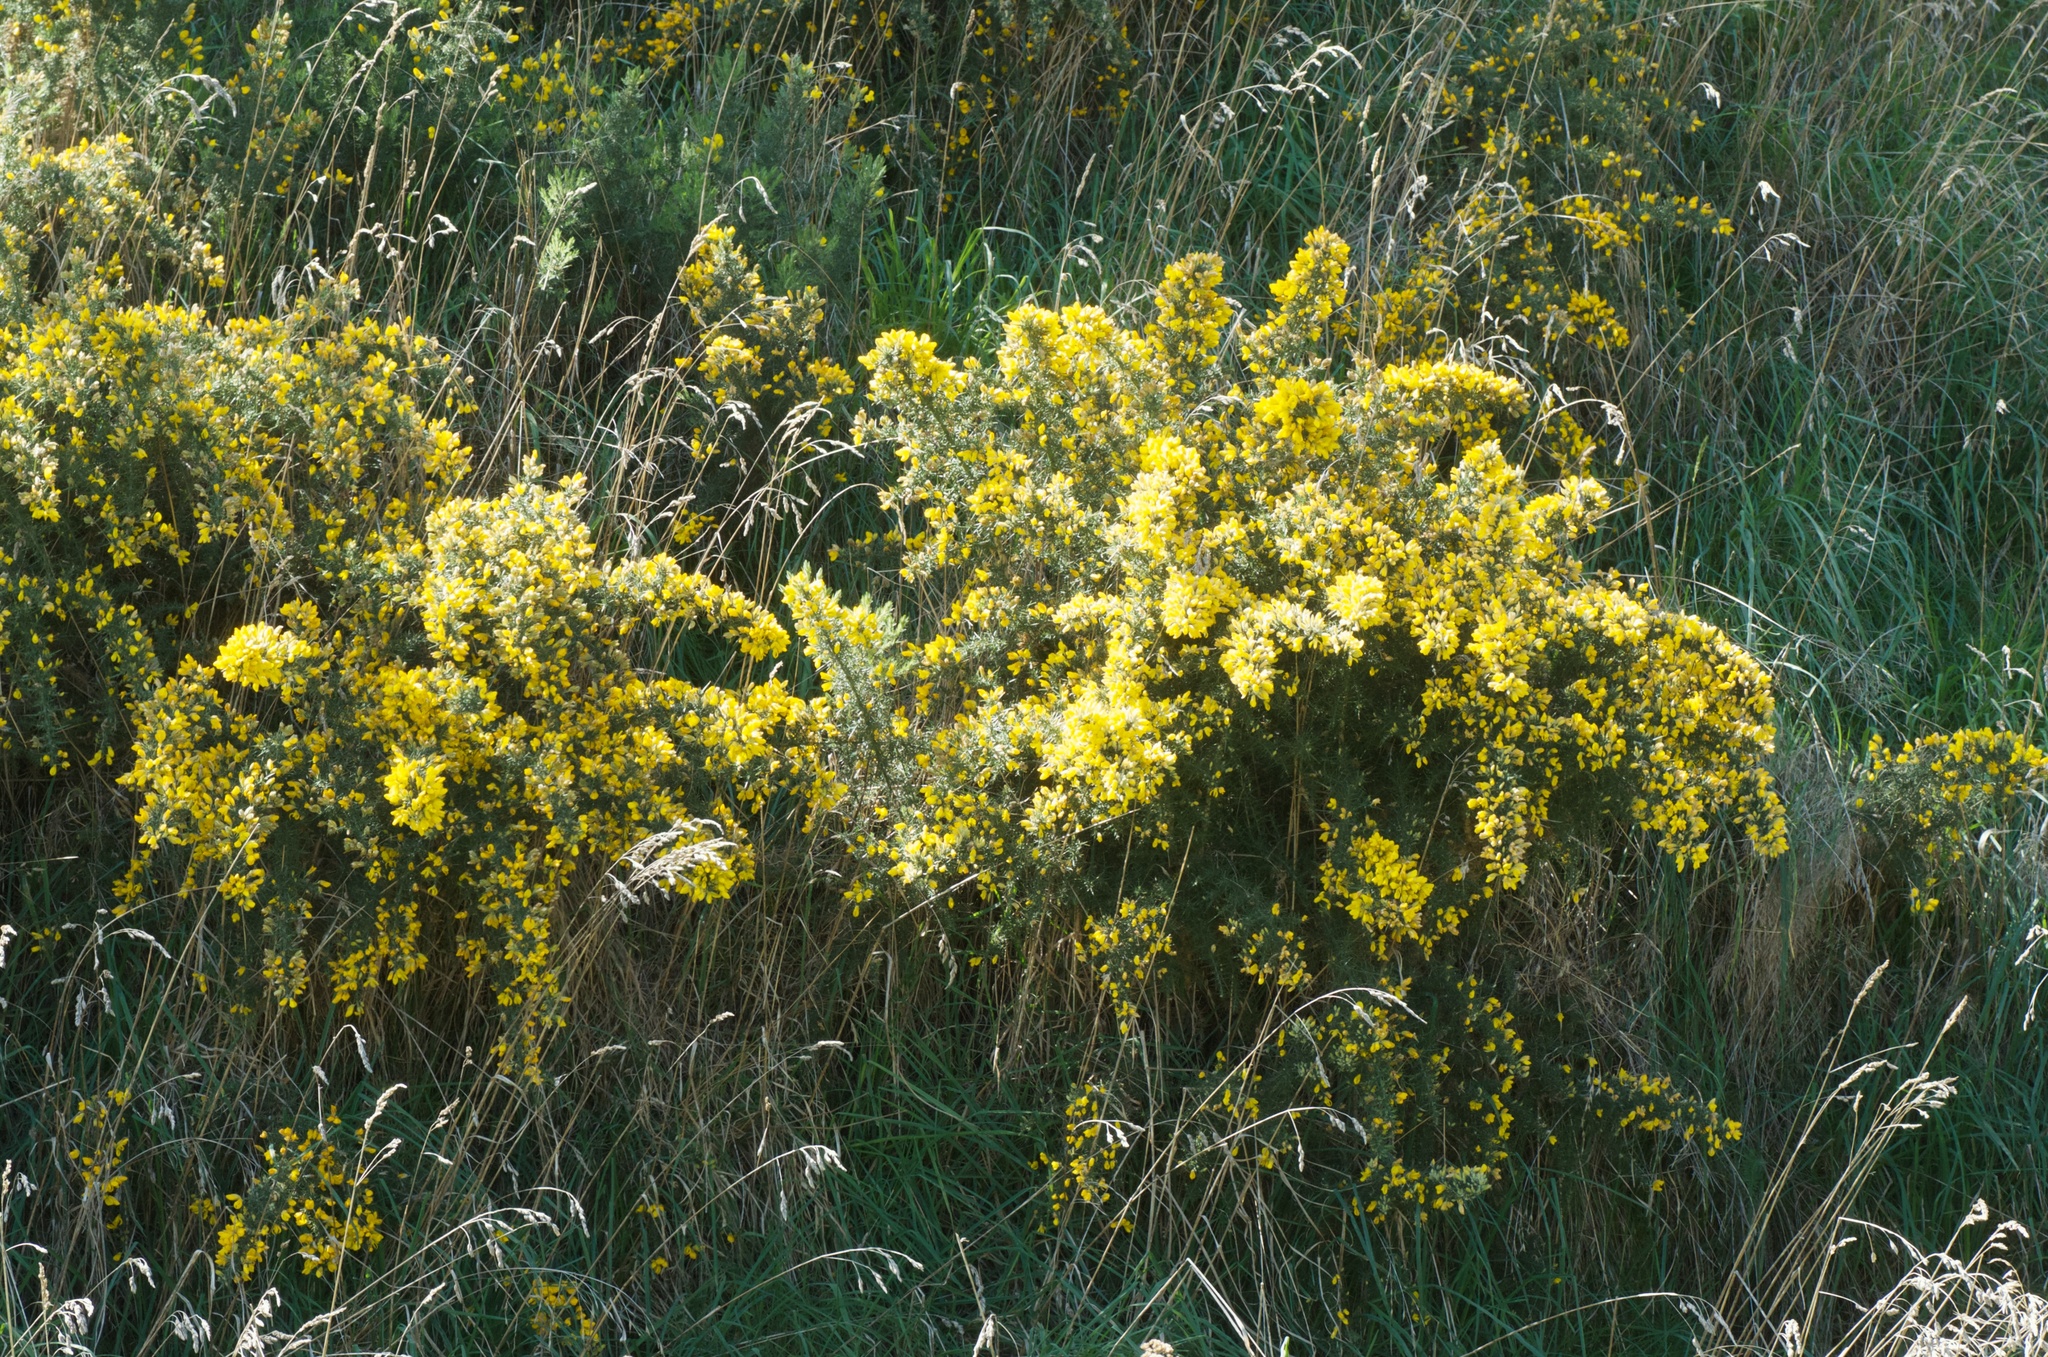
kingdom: Plantae
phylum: Tracheophyta
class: Magnoliopsida
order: Fabales
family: Fabaceae
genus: Ulex
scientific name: Ulex europaeus
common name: Common gorse
